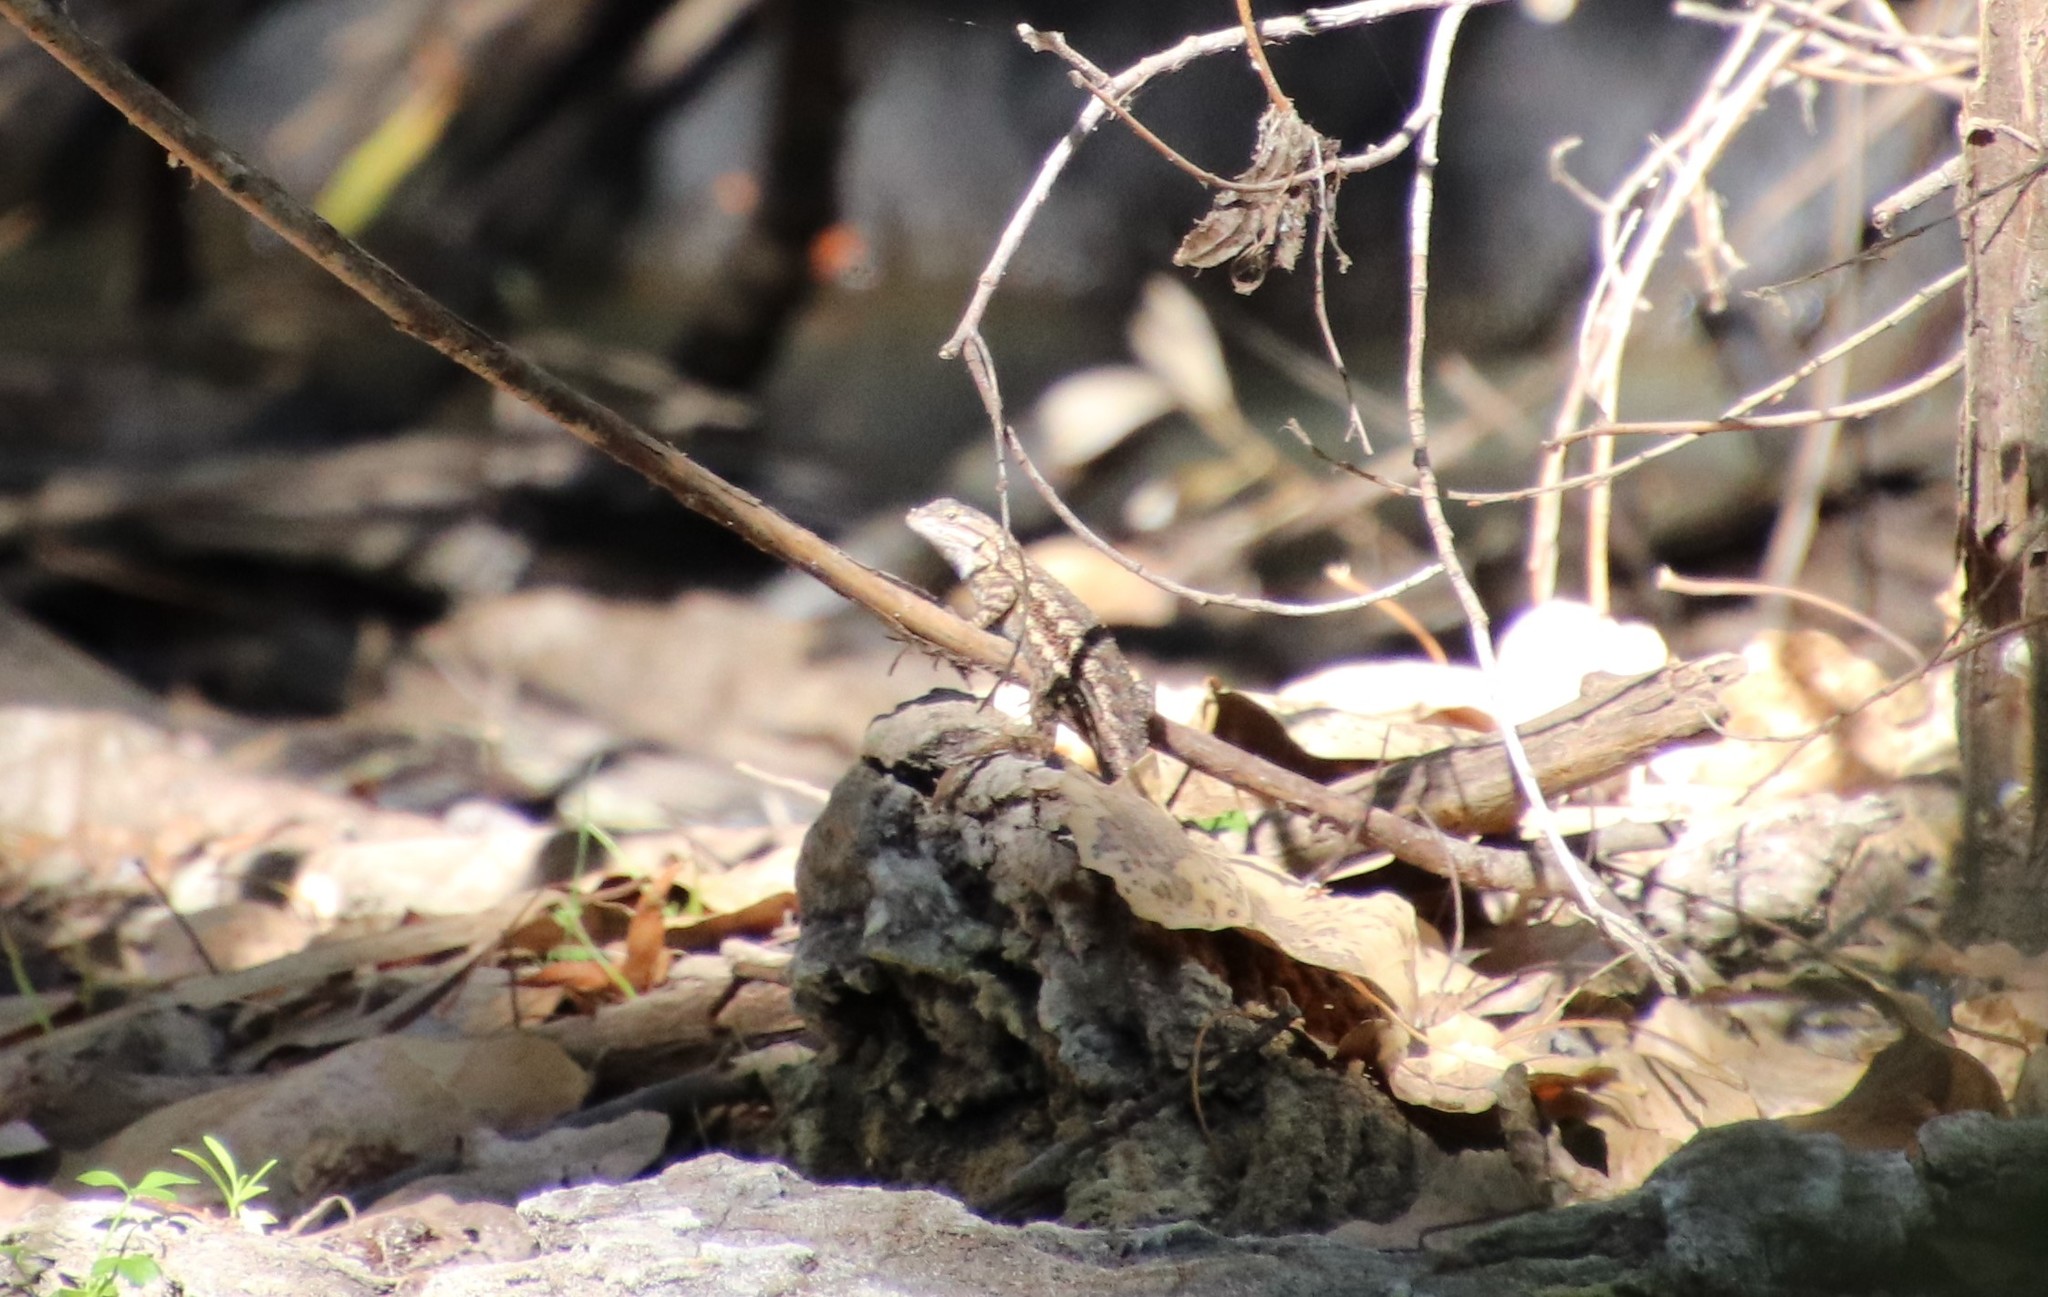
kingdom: Animalia
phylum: Chordata
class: Squamata
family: Phrynosomatidae
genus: Sceloporus
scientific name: Sceloporus occidentalis
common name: Western fence lizard
